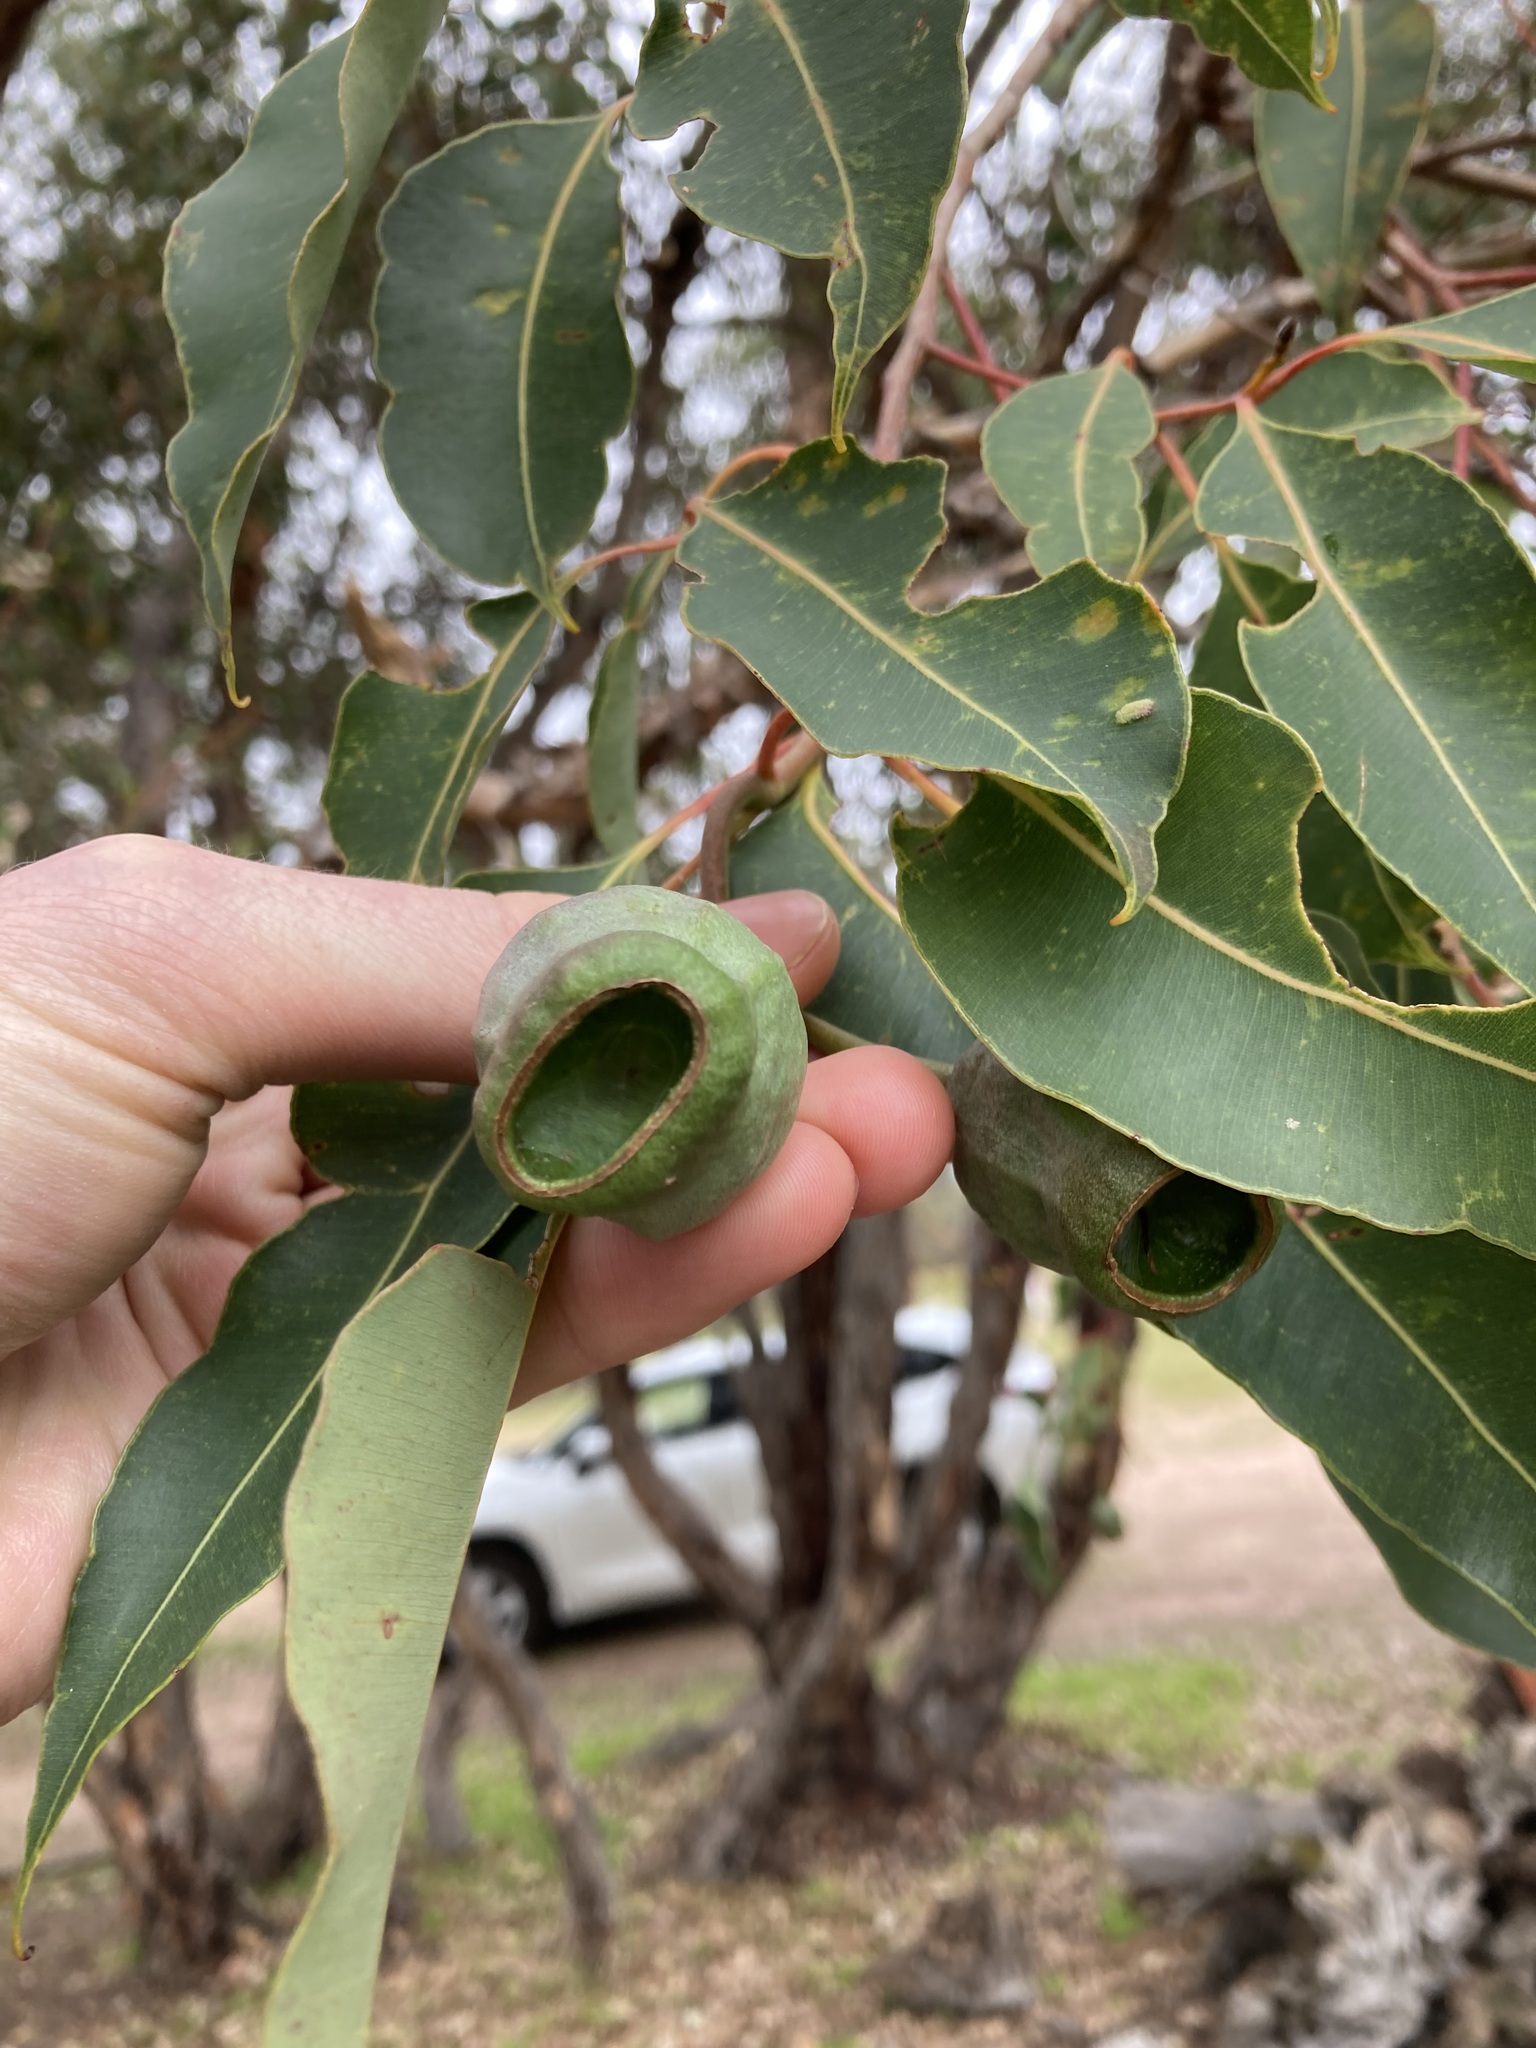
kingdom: Plantae
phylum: Tracheophyta
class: Magnoliopsida
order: Myrtales
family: Myrtaceae
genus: Corymbia
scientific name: Corymbia calophylla
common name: Marri
